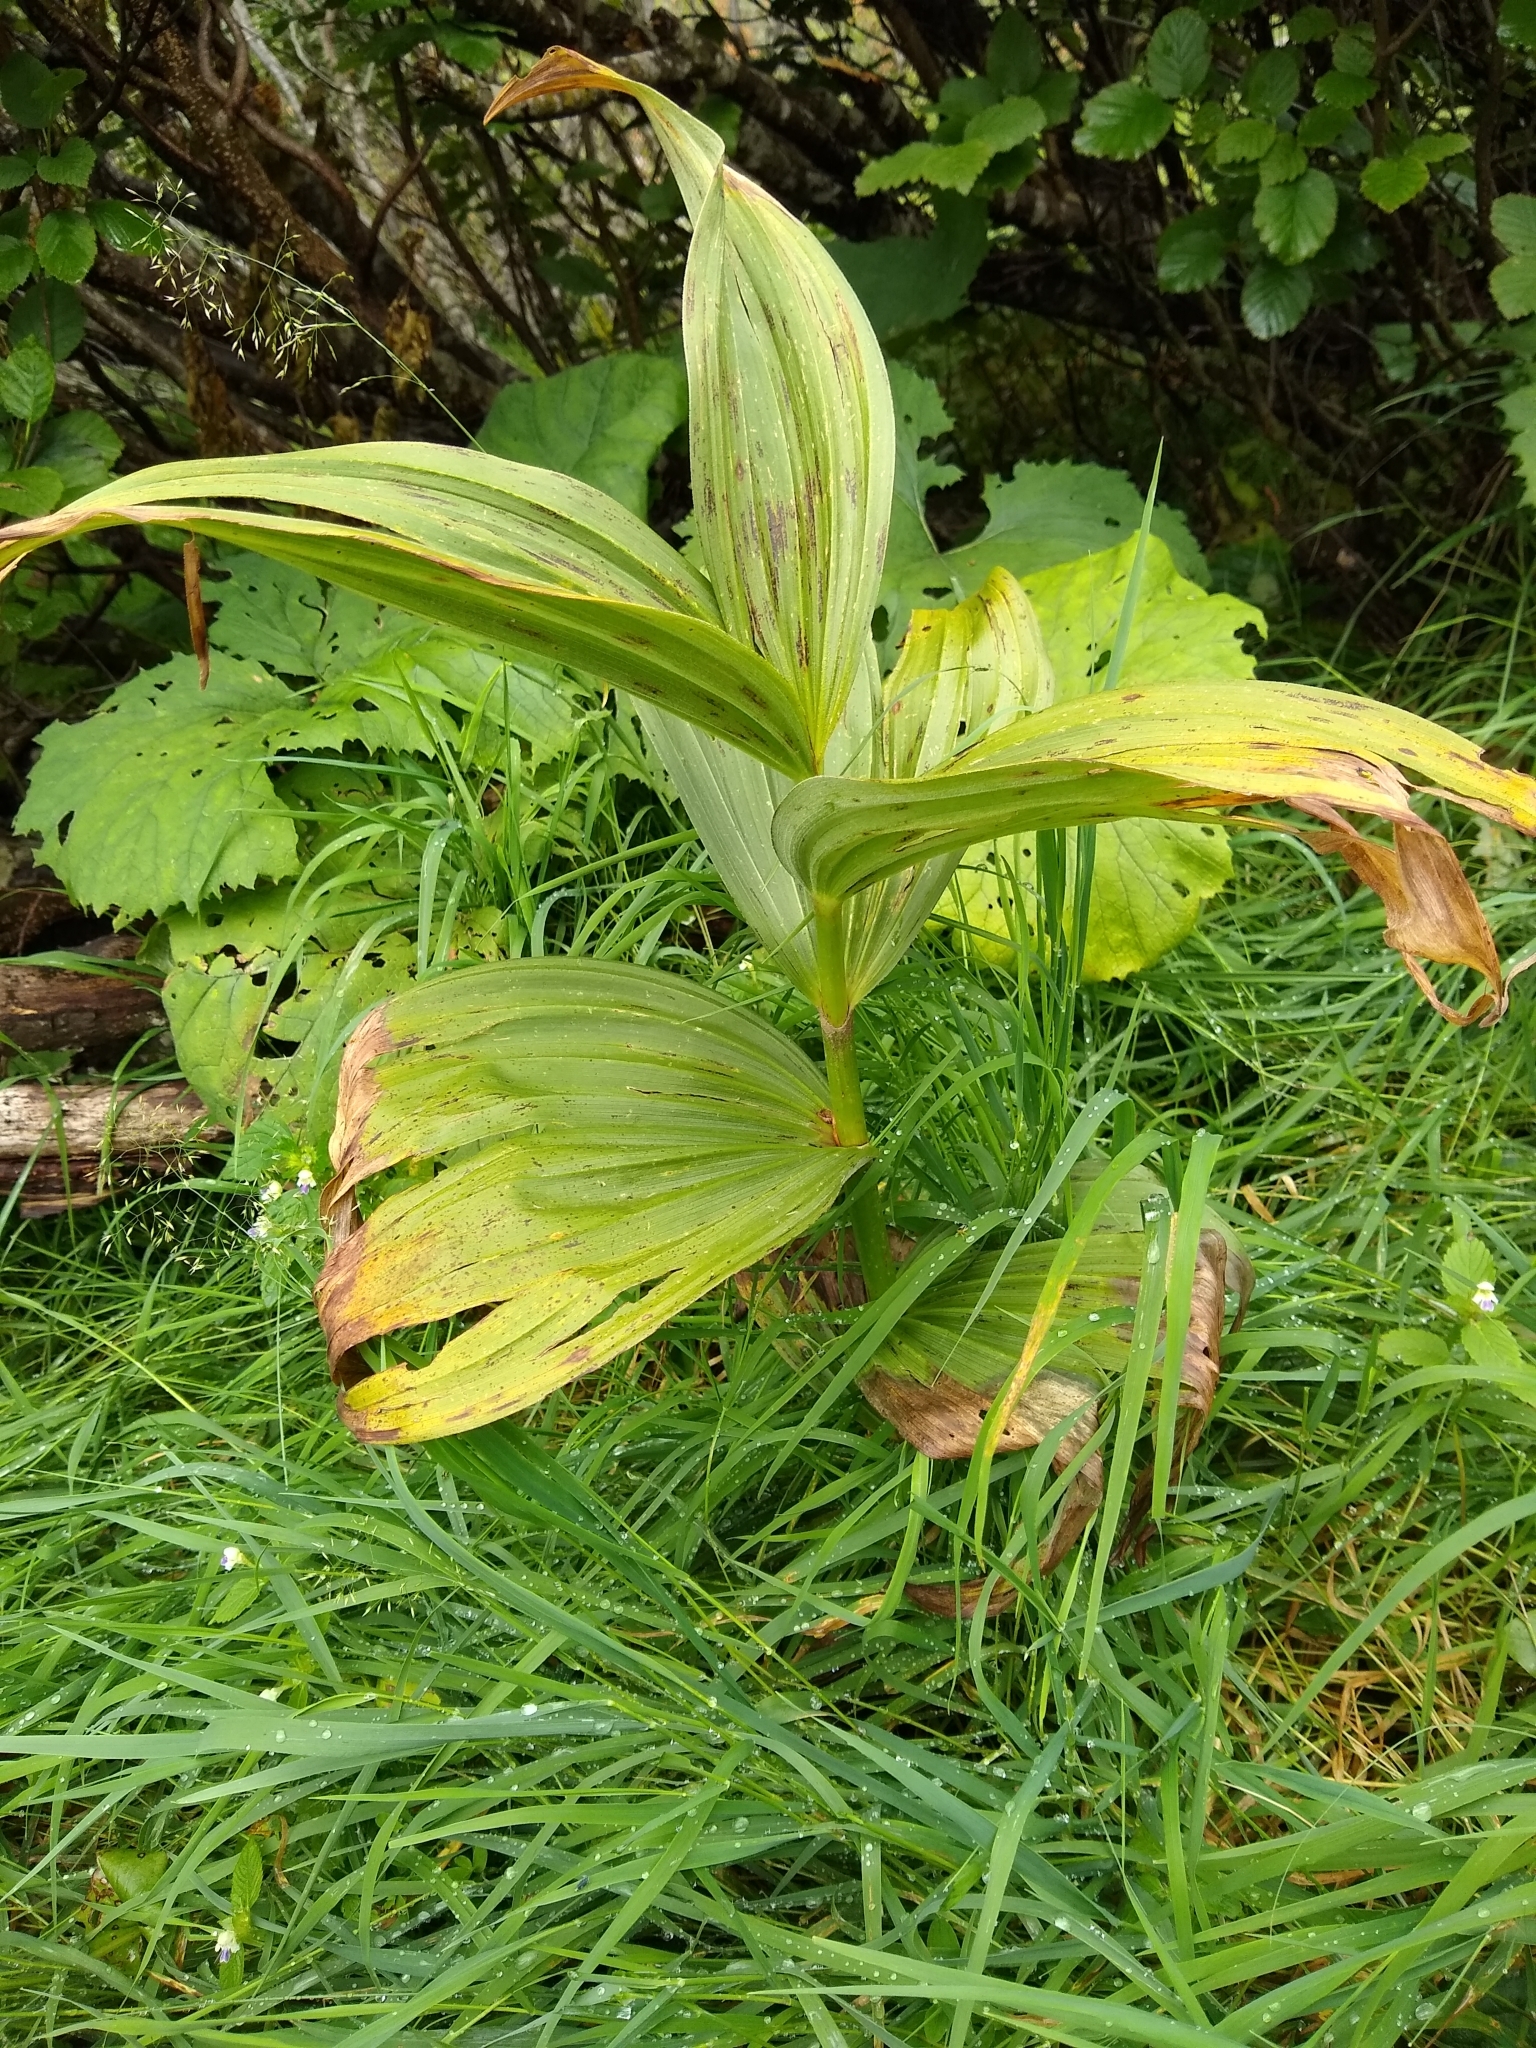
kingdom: Plantae
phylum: Tracheophyta
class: Liliopsida
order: Liliales
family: Melanthiaceae
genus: Veratrum
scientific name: Veratrum
